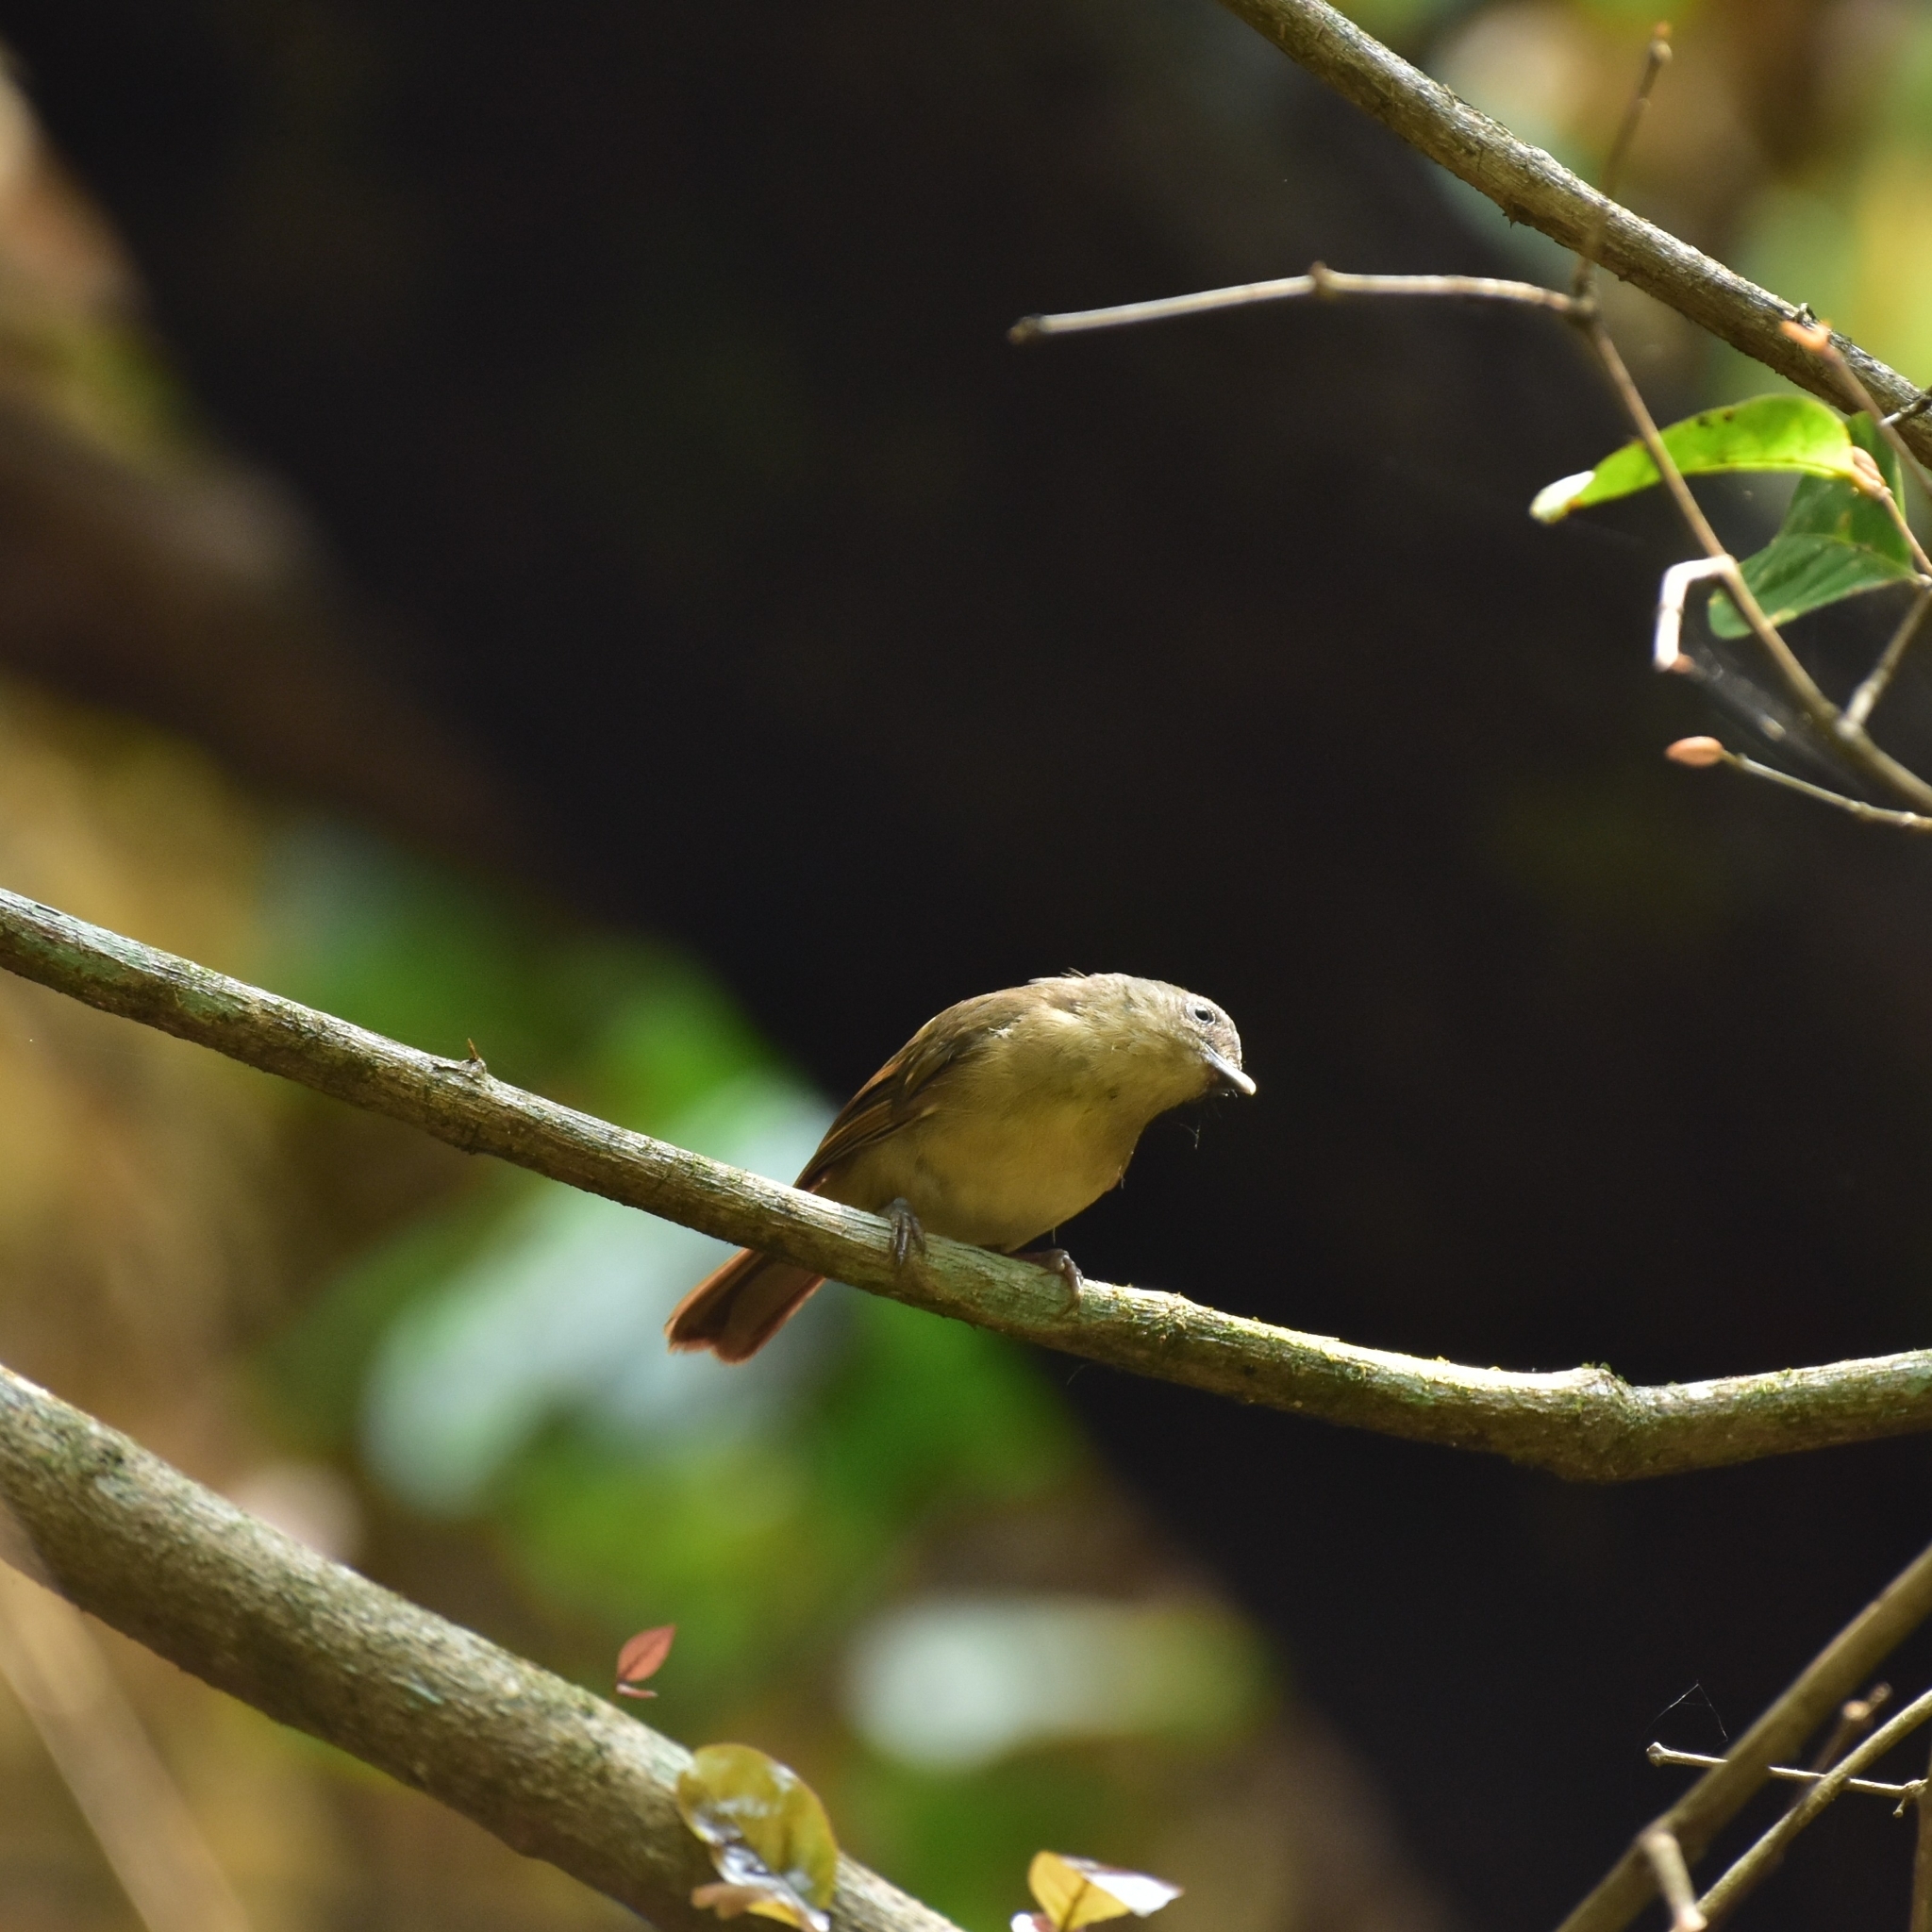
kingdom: Animalia
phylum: Chordata
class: Aves
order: Passeriformes
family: Pellorneidae
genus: Alcippe
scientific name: Alcippe poioicephala
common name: Brown-cheeked fulvetta
